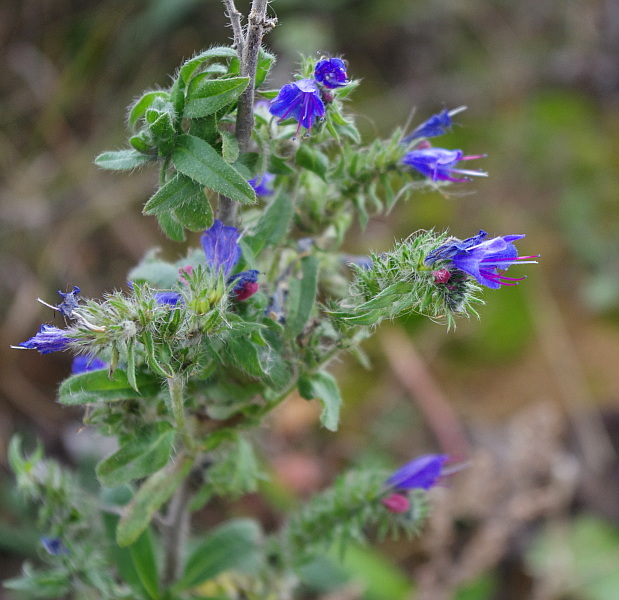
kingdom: Plantae
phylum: Tracheophyta
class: Magnoliopsida
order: Boraginales
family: Boraginaceae
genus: Echium
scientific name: Echium vulgare
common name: Common viper's bugloss
